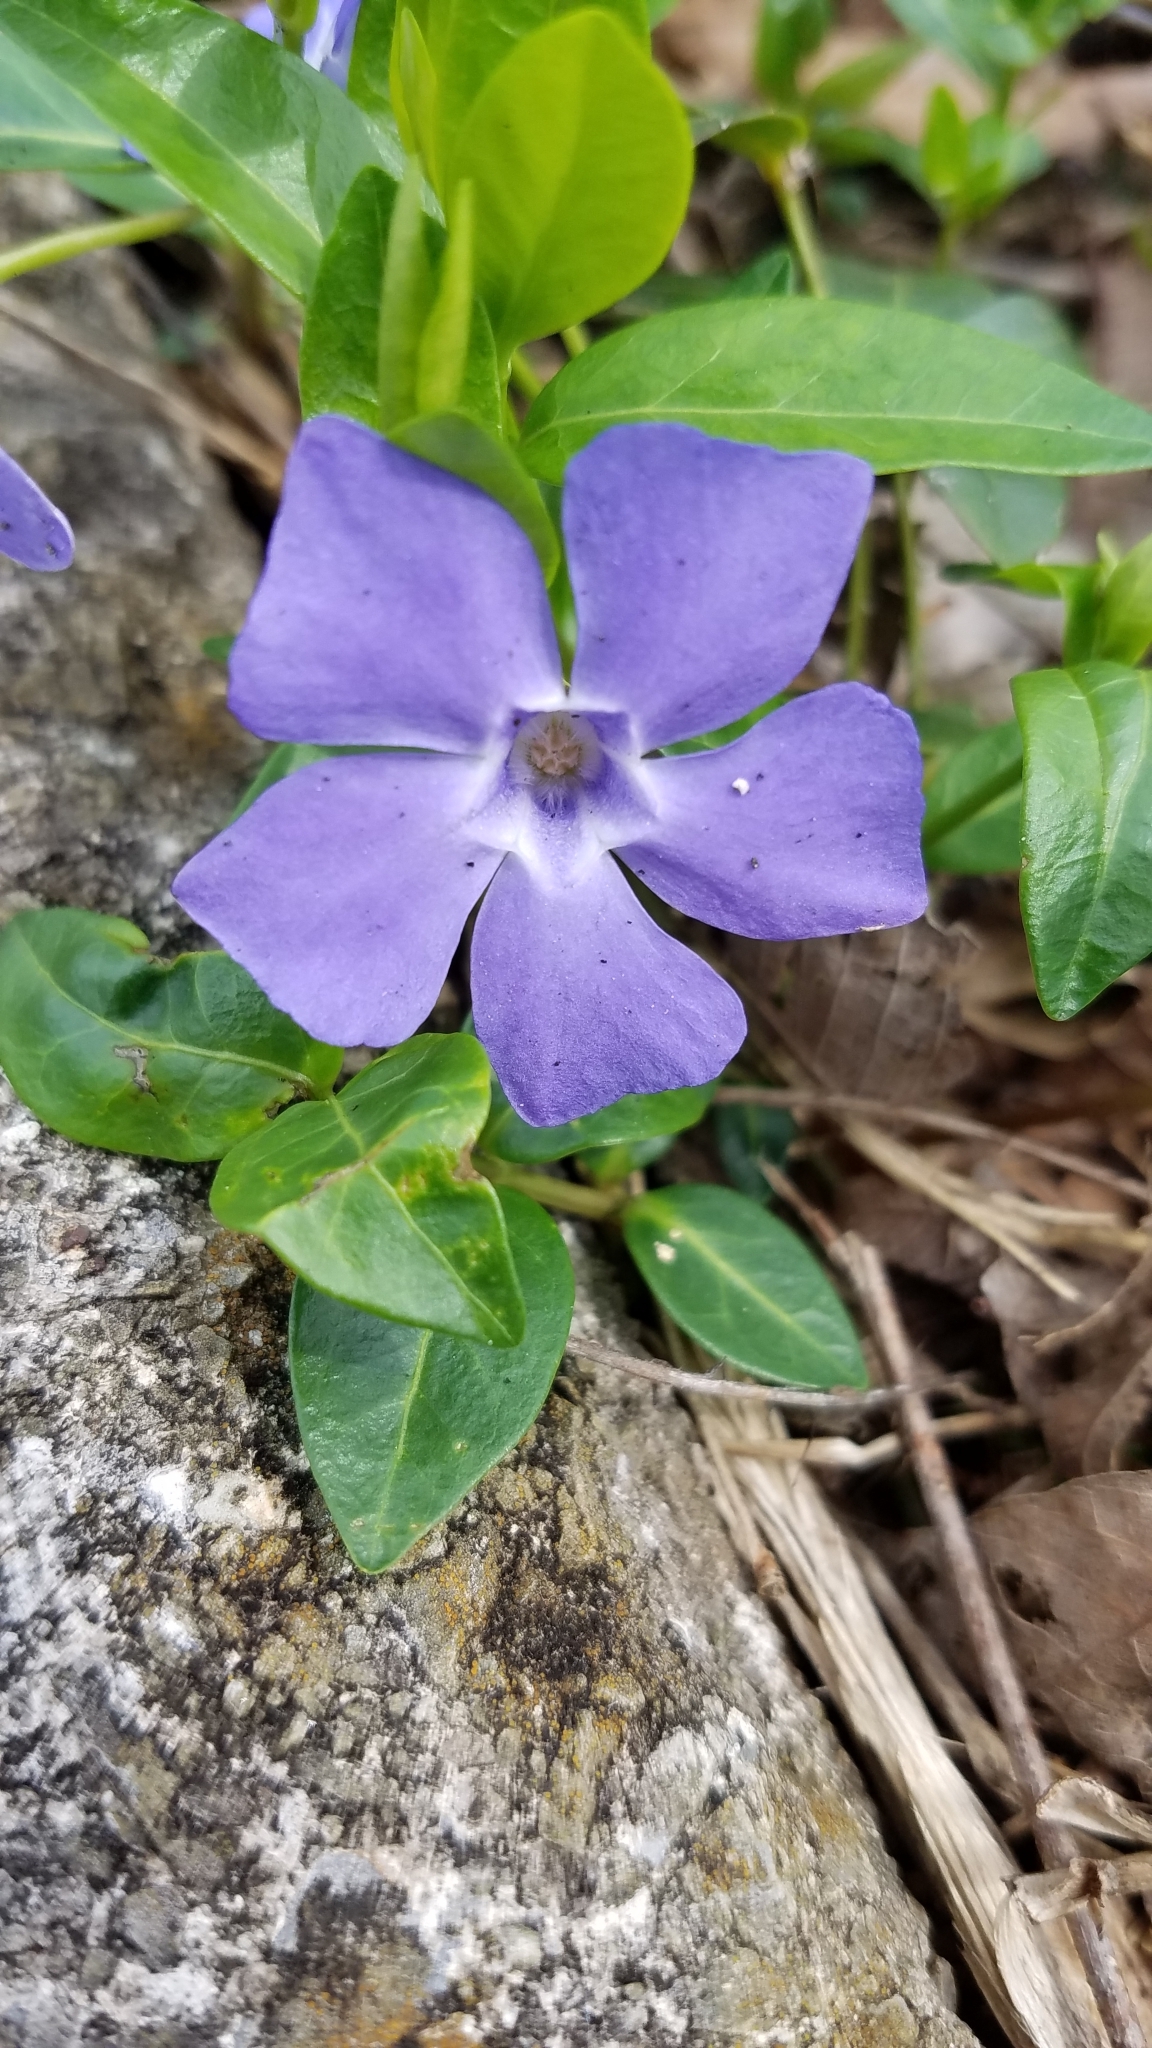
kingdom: Plantae
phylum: Tracheophyta
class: Magnoliopsida
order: Gentianales
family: Apocynaceae
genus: Vinca
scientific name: Vinca minor
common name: Lesser periwinkle
